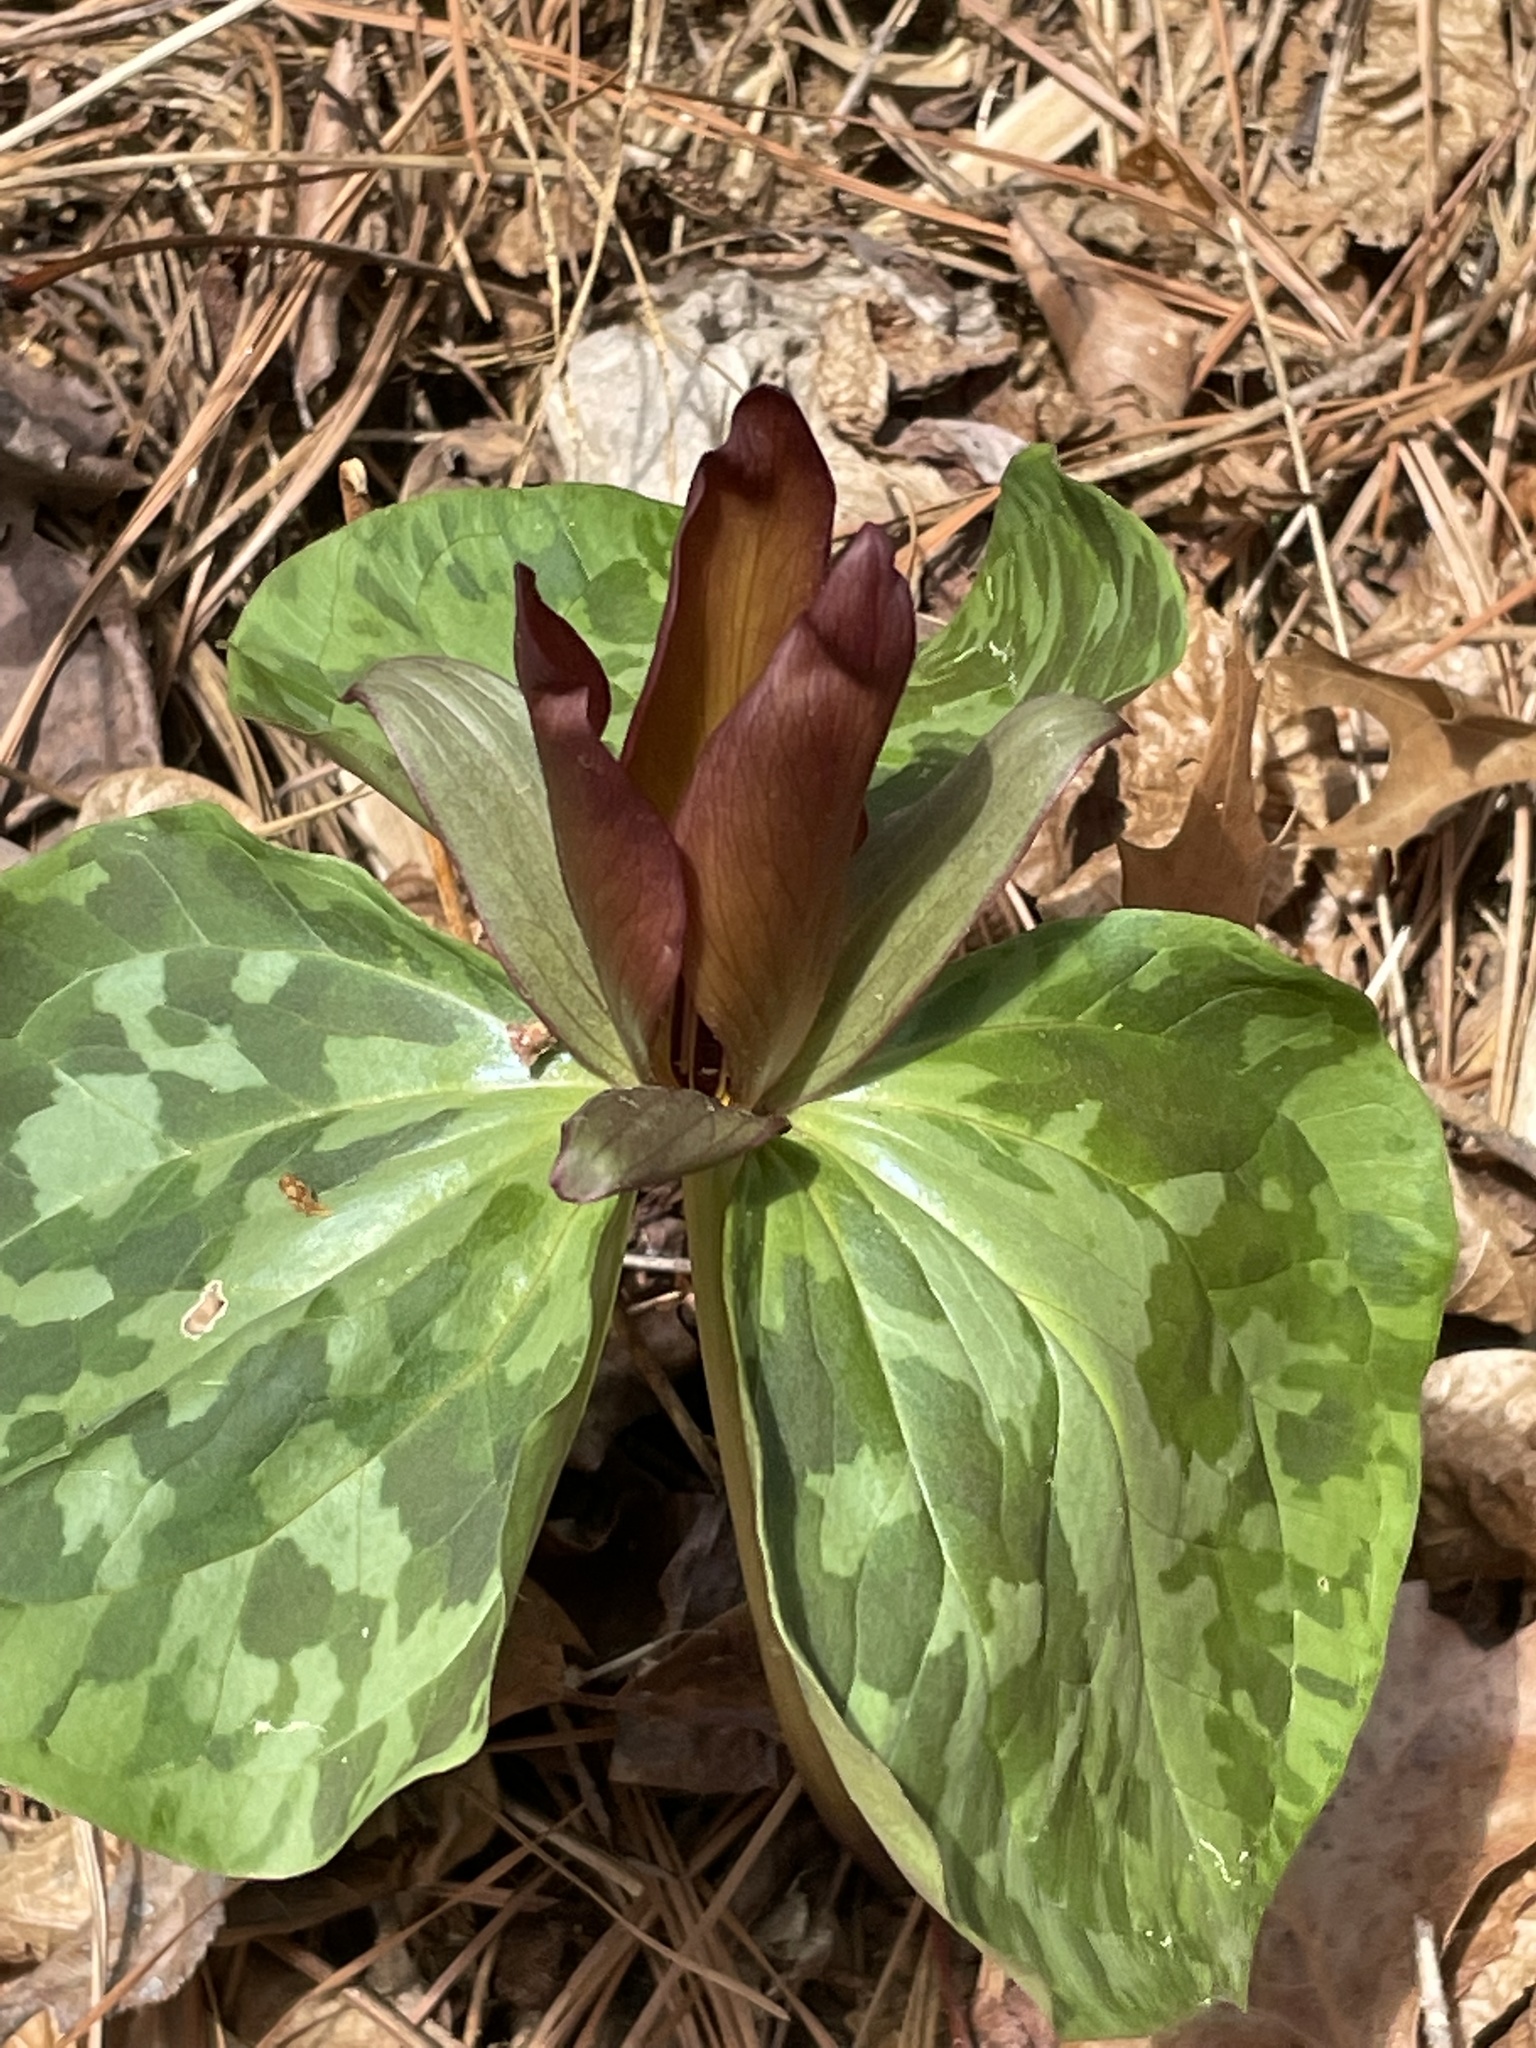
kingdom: Plantae
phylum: Tracheophyta
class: Liliopsida
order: Liliales
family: Melanthiaceae
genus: Trillium
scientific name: Trillium cuneatum
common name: Cuneate trillium
